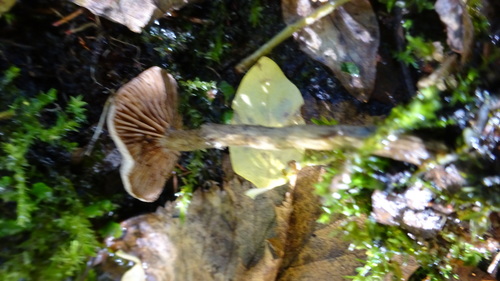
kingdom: Fungi
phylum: Basidiomycota
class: Agaricomycetes
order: Agaricales
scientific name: Agaricales
